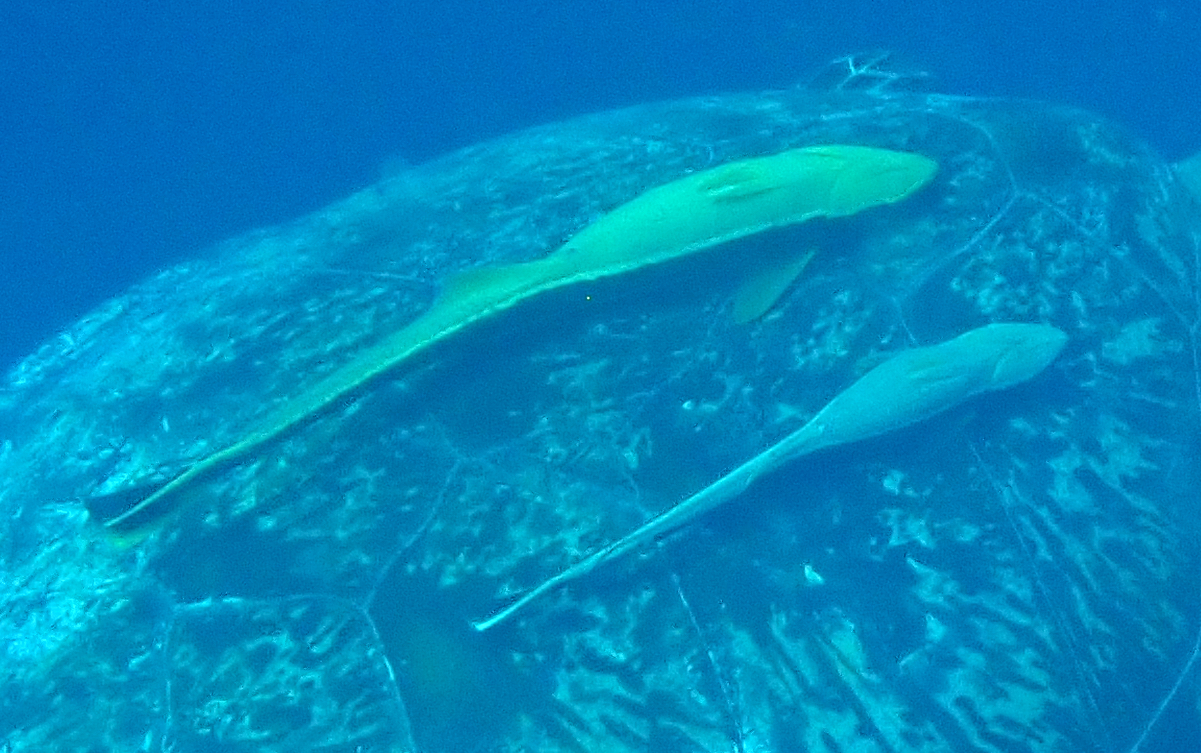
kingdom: Animalia
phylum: Chordata
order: Perciformes
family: Echeneidae
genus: Echeneis
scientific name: Echeneis naucrates
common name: Sharksucker
